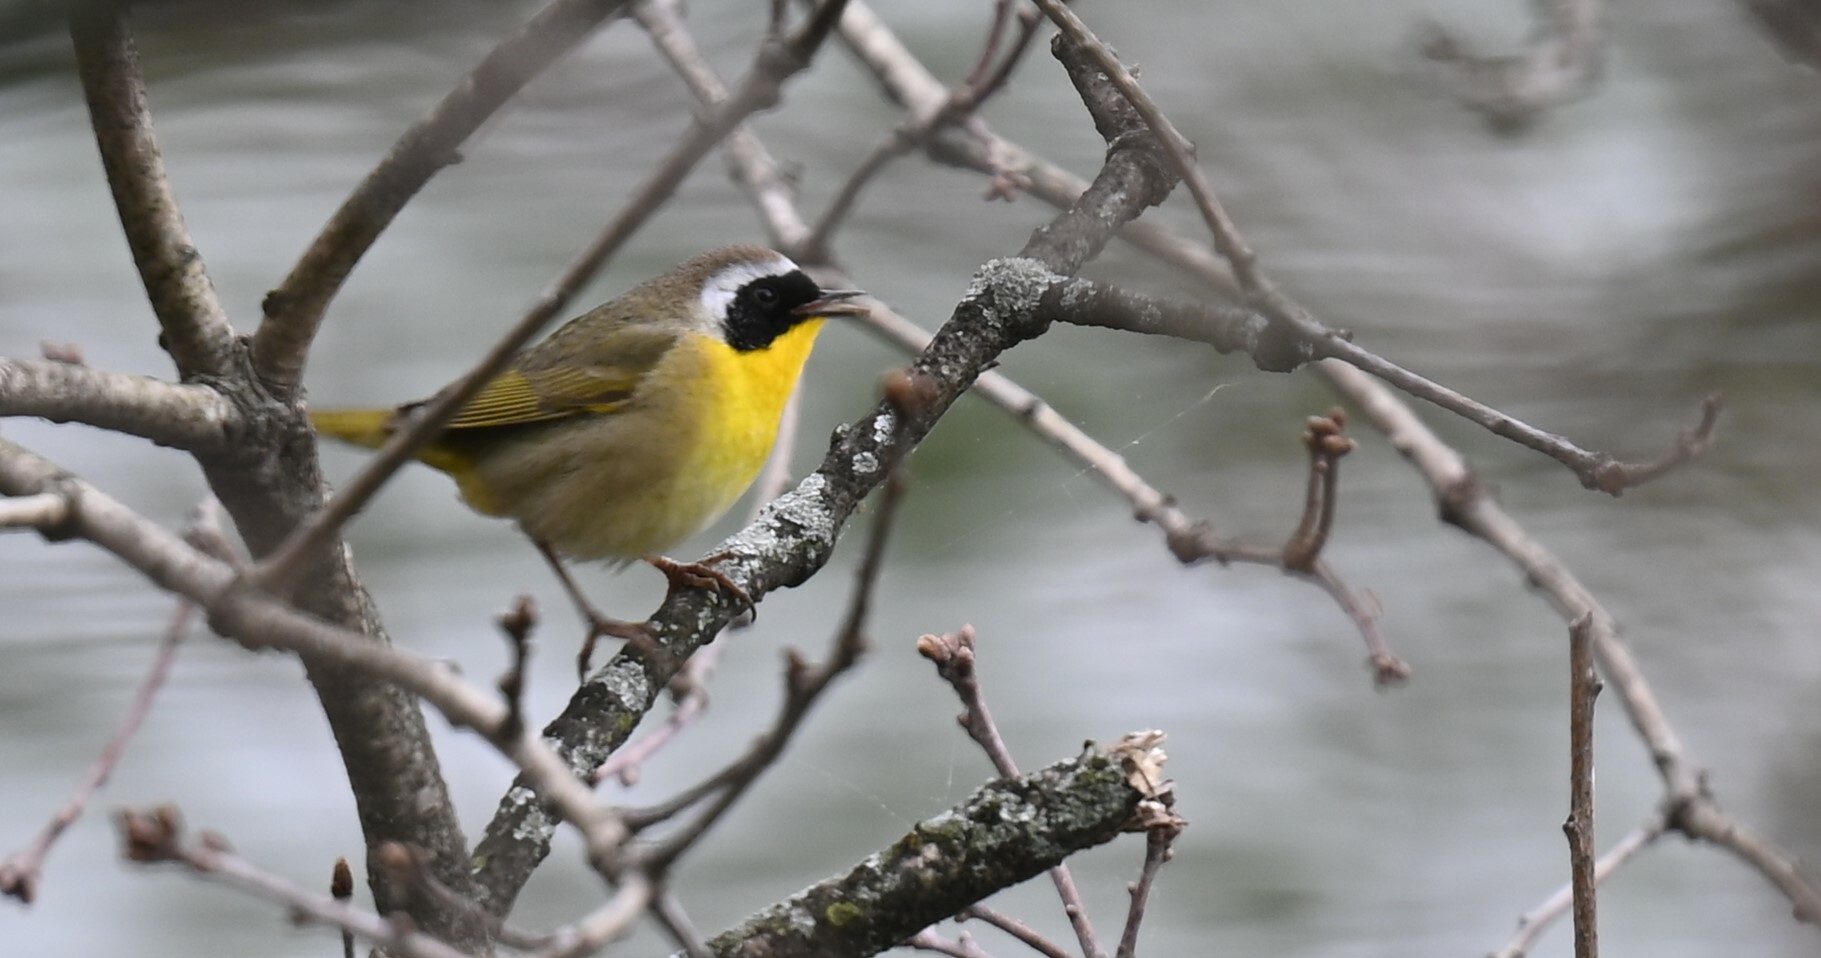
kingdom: Animalia
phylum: Chordata
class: Aves
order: Passeriformes
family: Parulidae
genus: Geothlypis
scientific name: Geothlypis trichas
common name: Common yellowthroat
